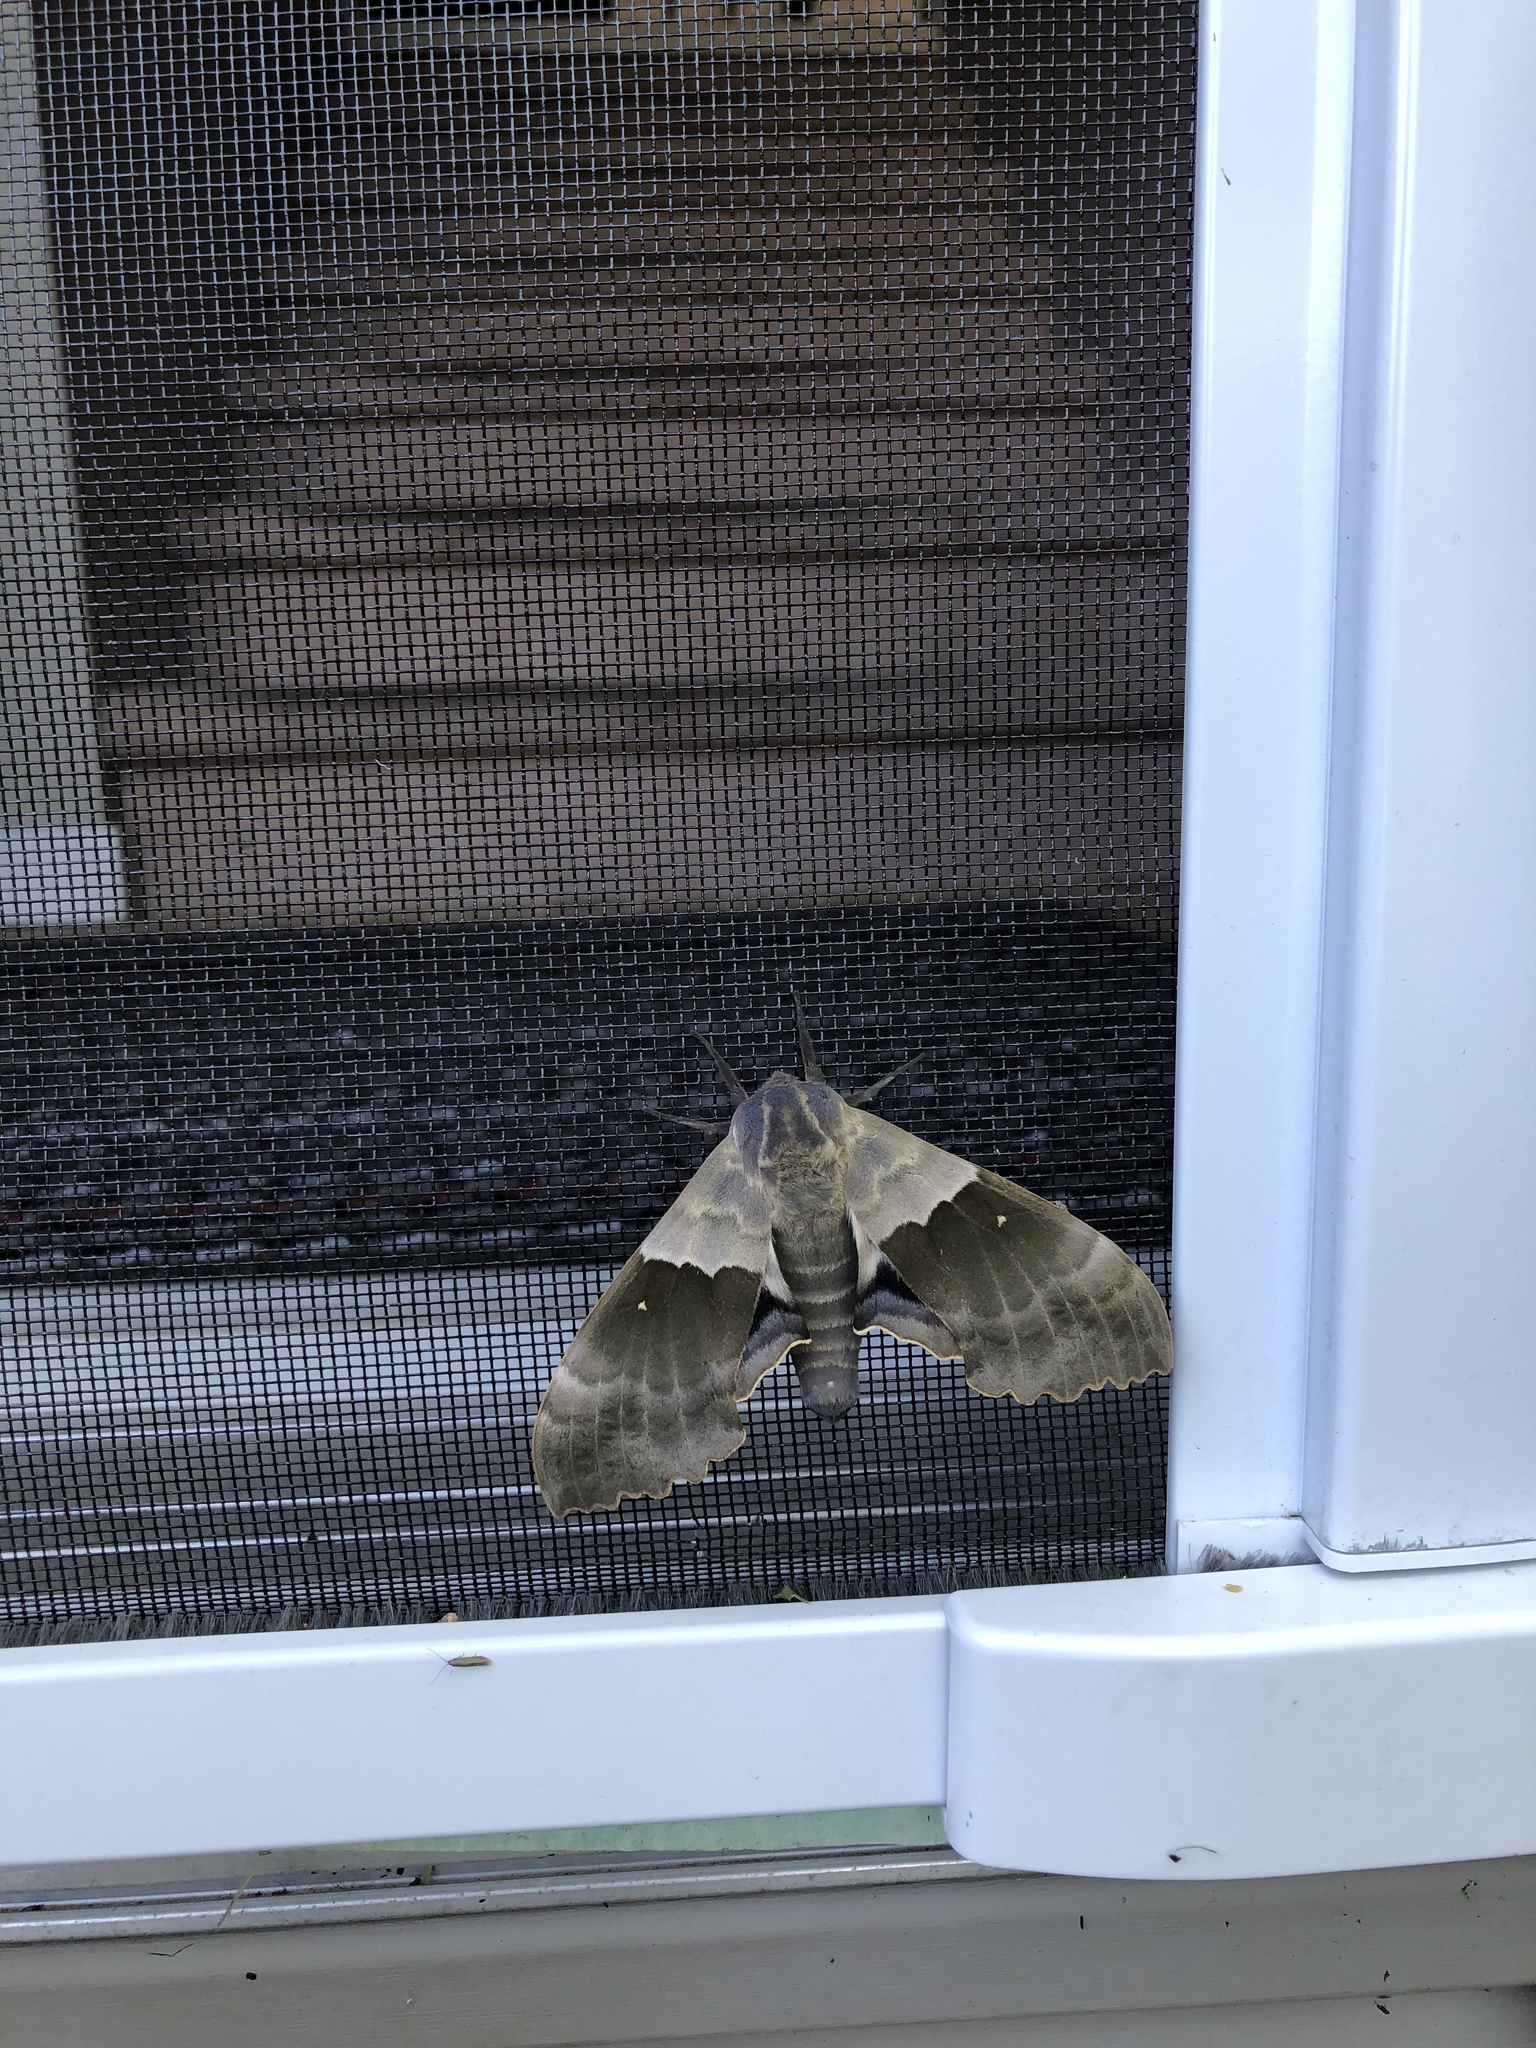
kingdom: Animalia
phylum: Arthropoda
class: Insecta
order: Lepidoptera
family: Sphingidae
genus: Pachysphinx
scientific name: Pachysphinx modesta
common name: Big poplar sphinx
